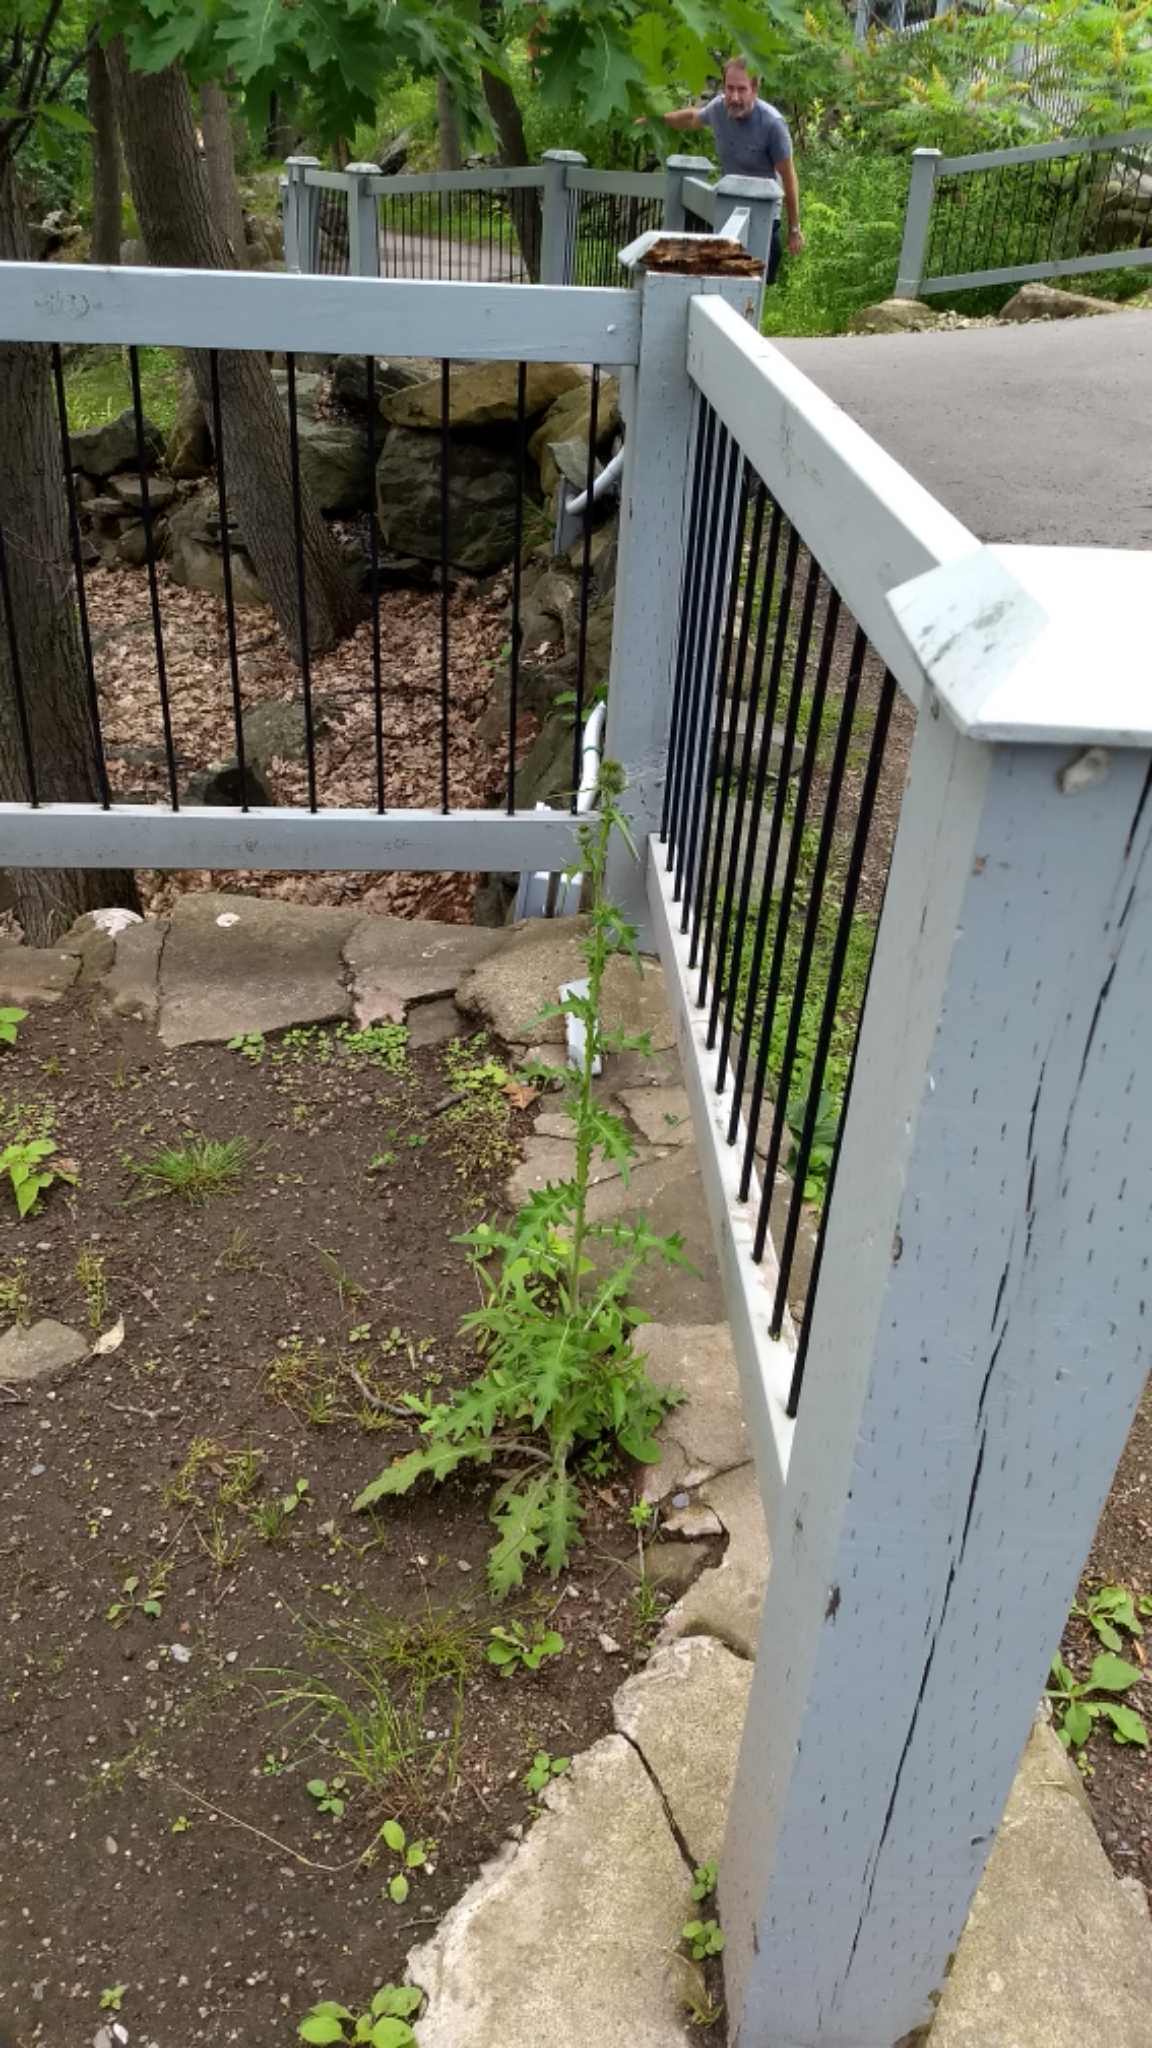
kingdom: Plantae
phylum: Tracheophyta
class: Magnoliopsida
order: Asterales
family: Asteraceae
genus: Cirsium
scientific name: Cirsium vulgare
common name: Bull thistle
